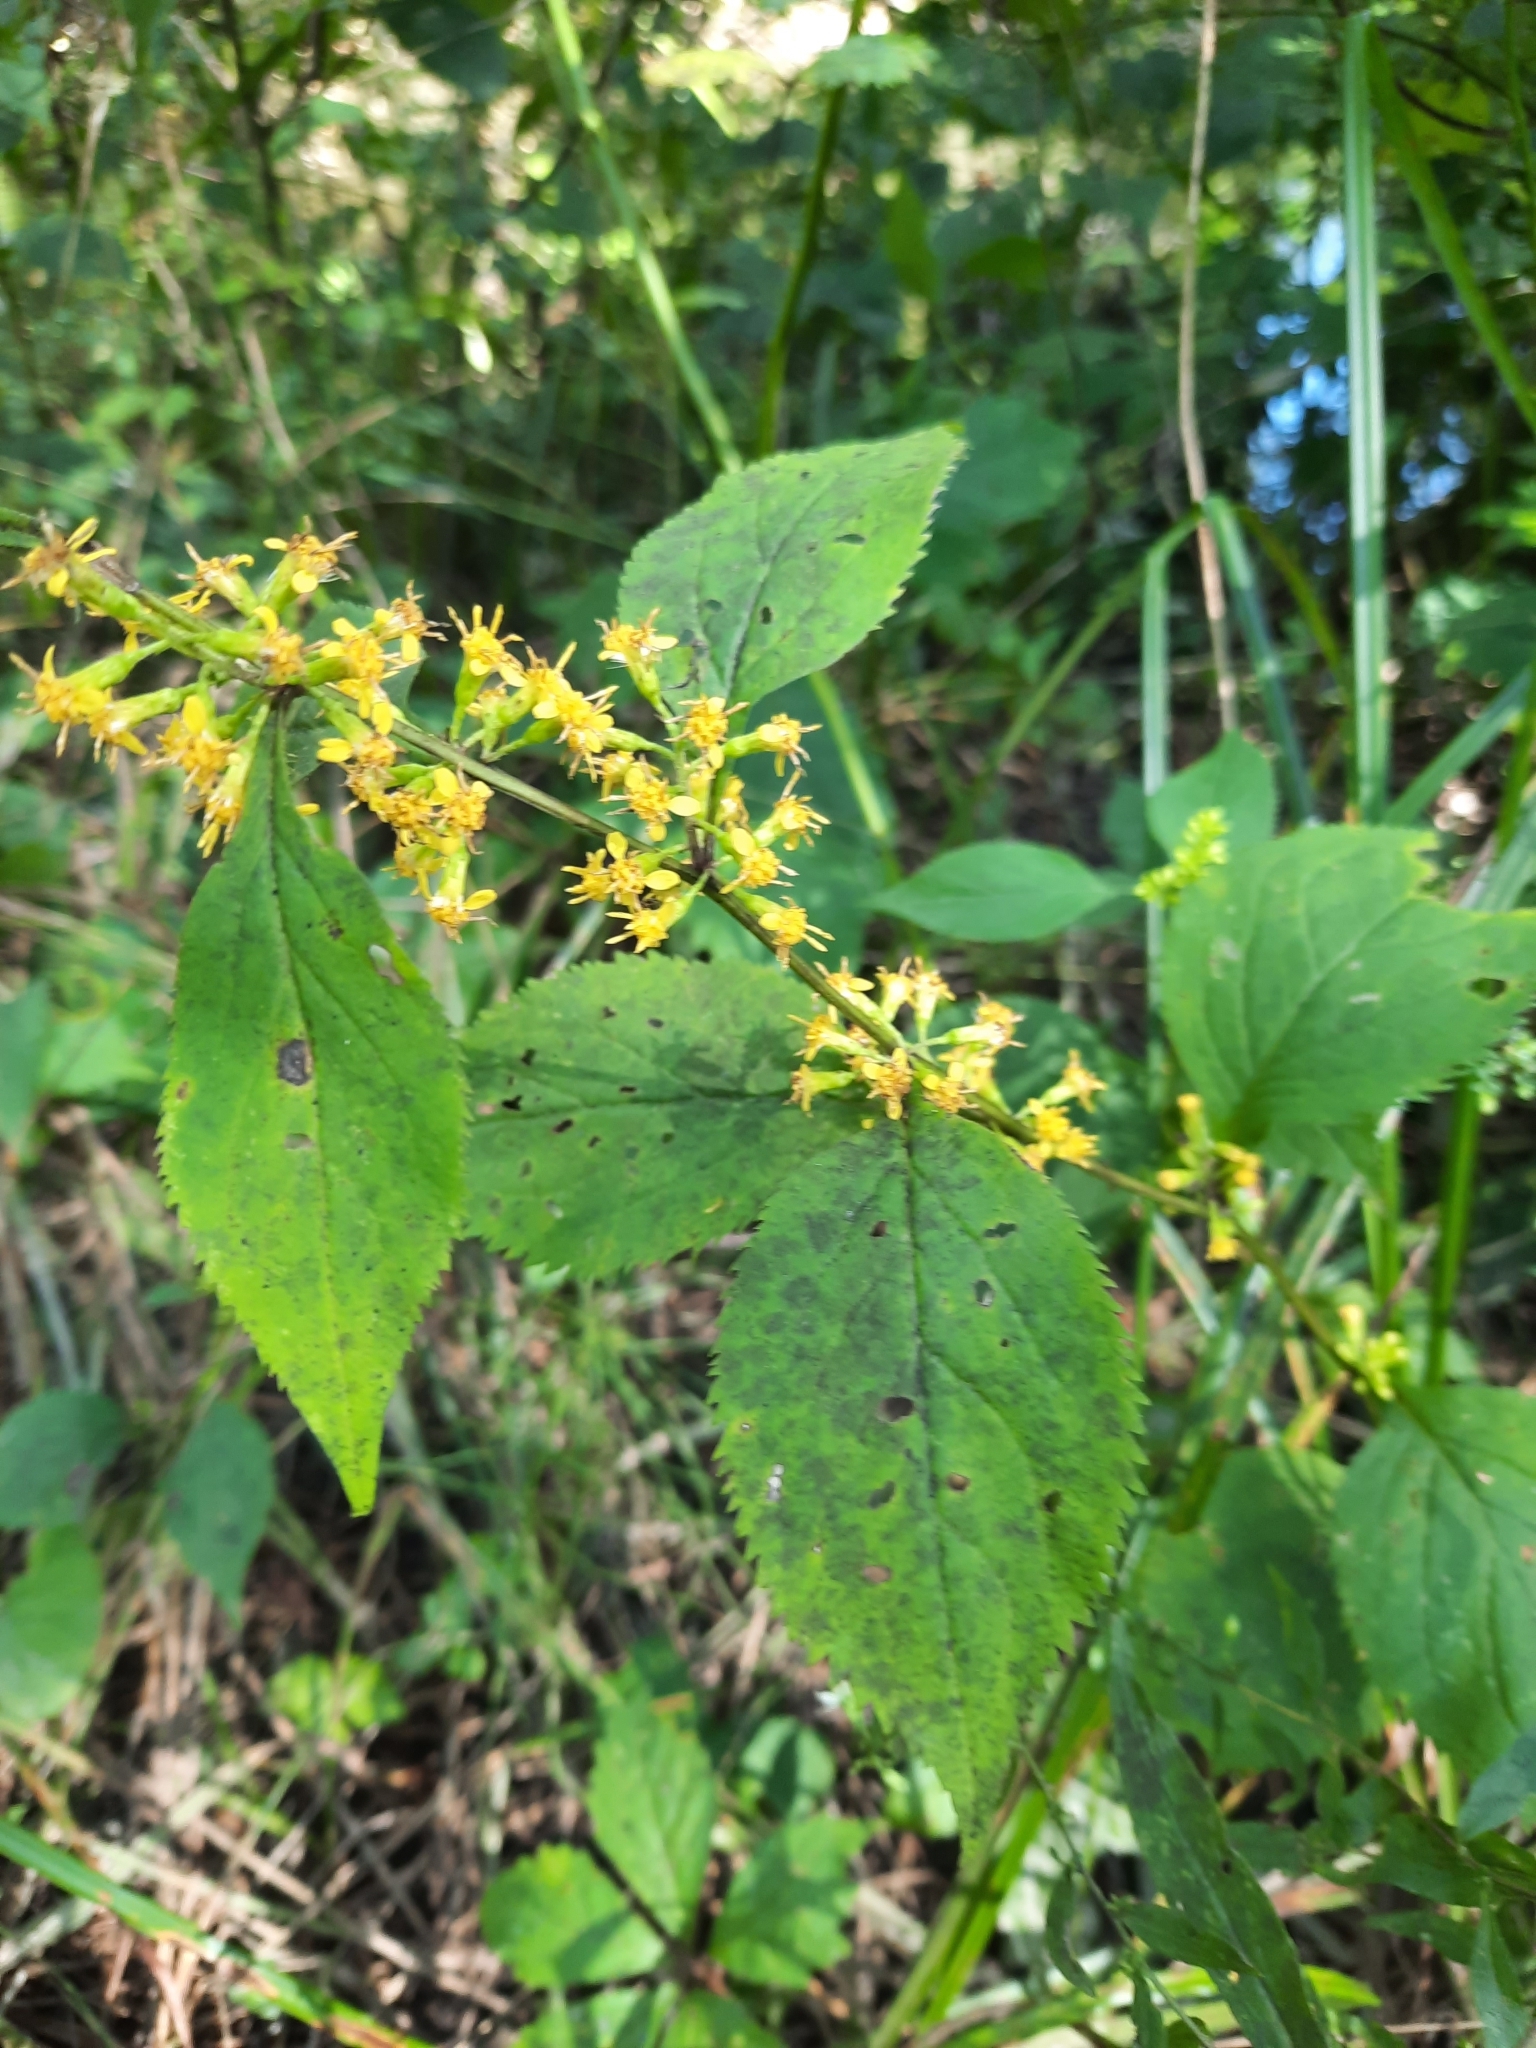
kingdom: Plantae
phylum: Tracheophyta
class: Magnoliopsida
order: Asterales
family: Asteraceae
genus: Solidago
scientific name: Solidago flexicaulis
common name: Zig-zag goldenrod
